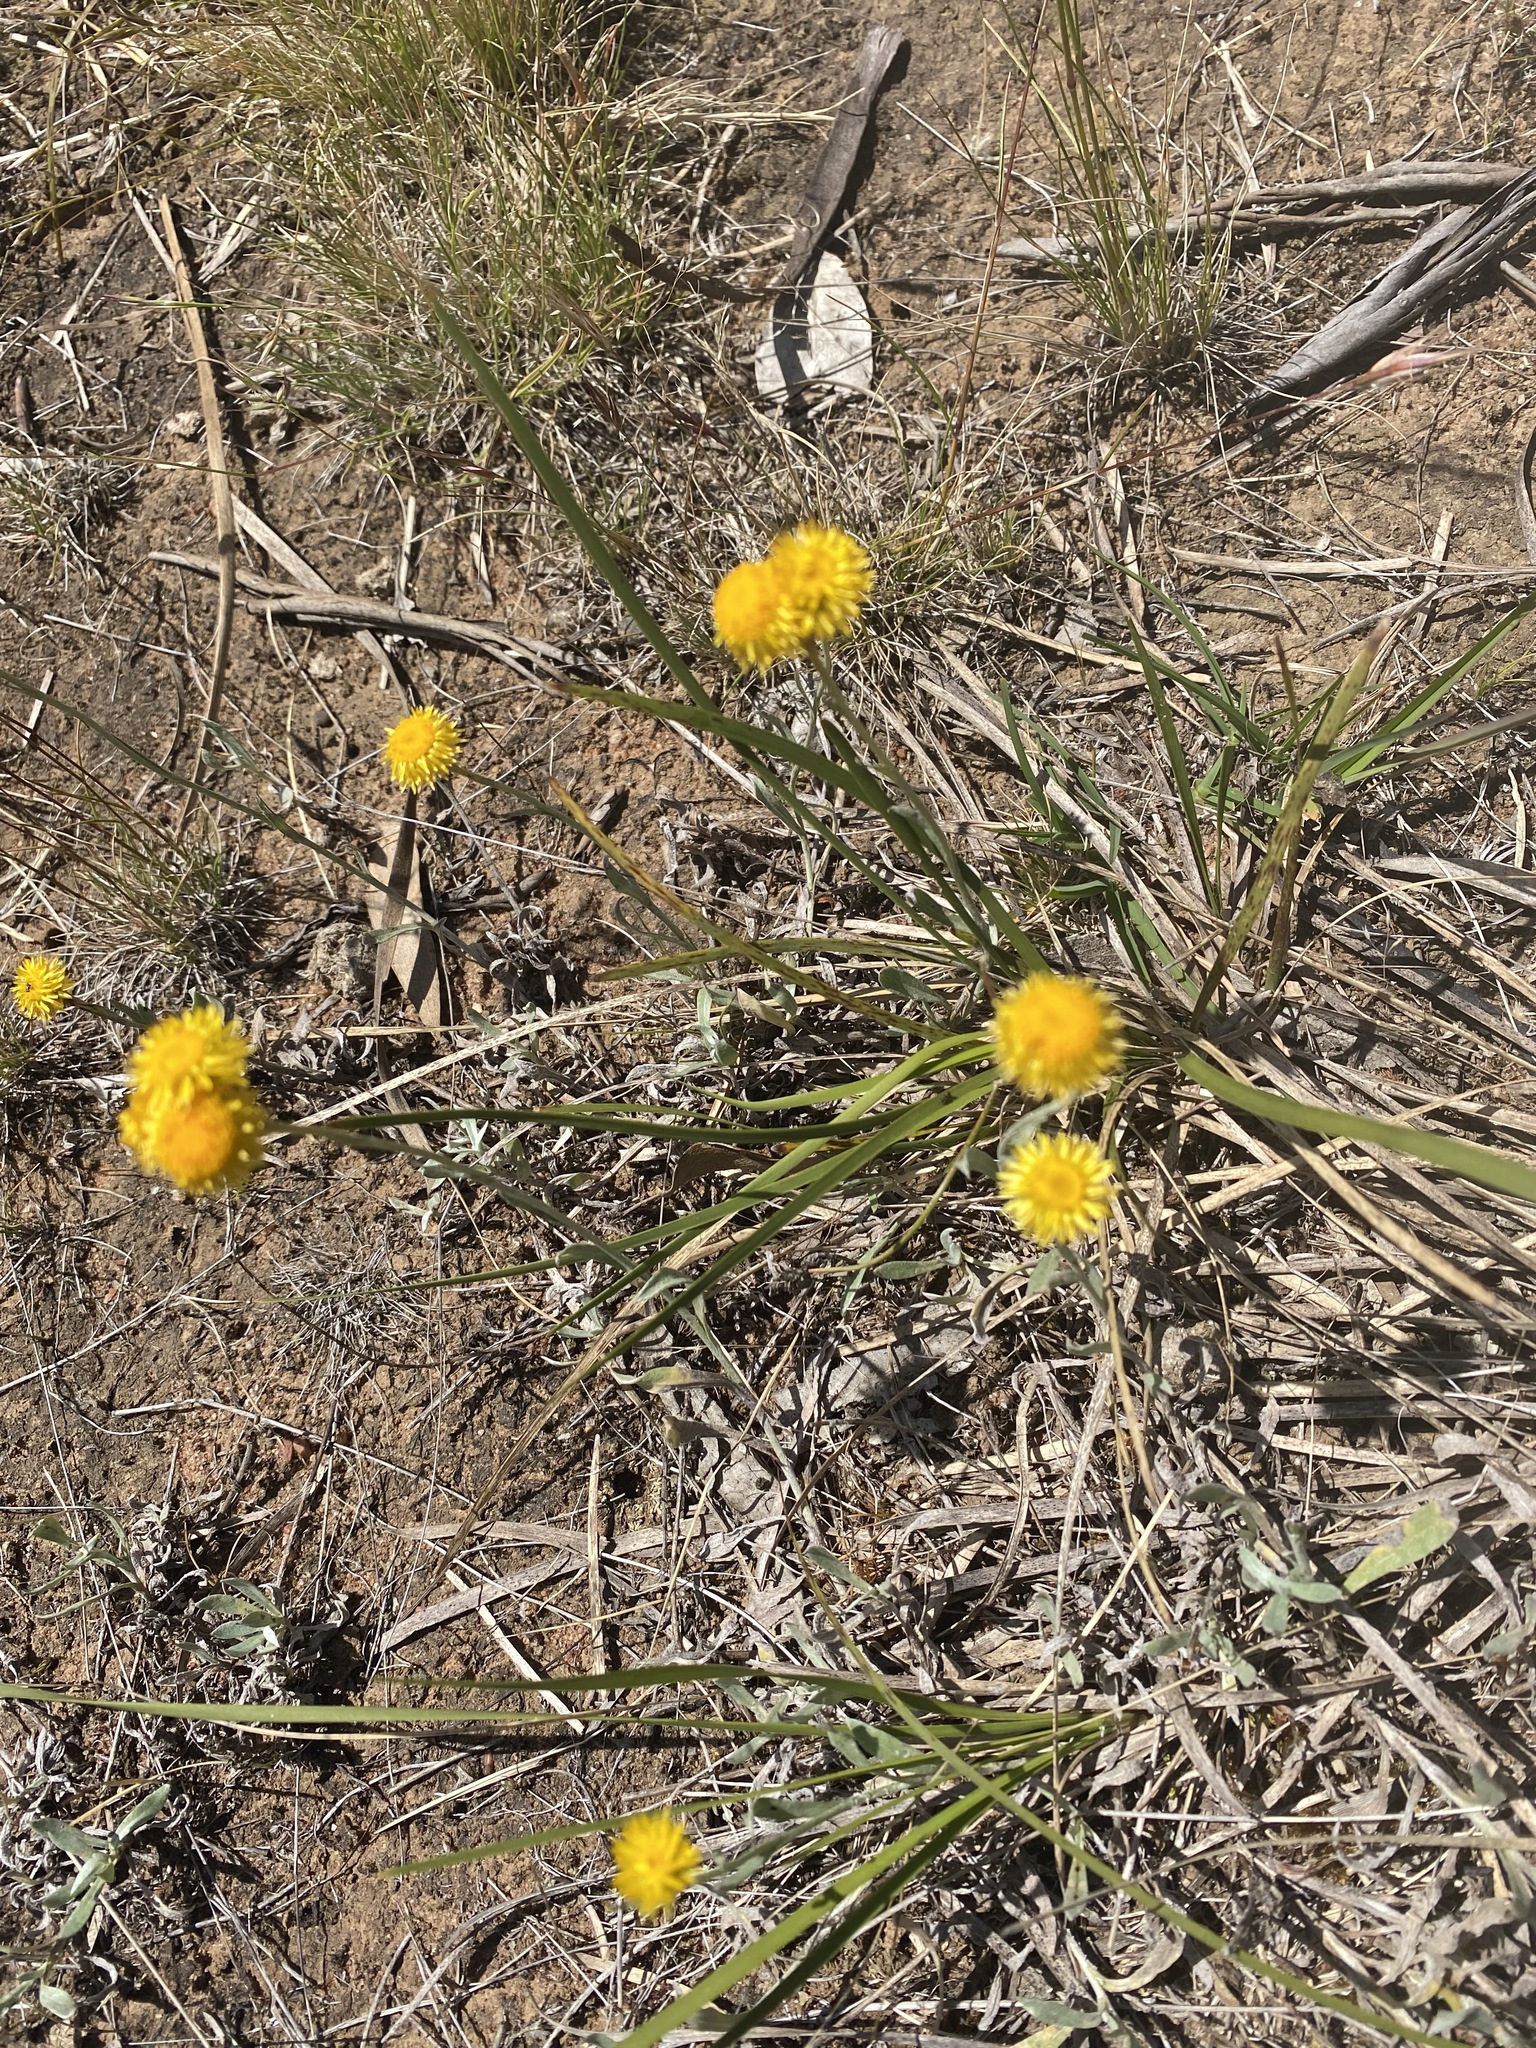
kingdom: Plantae
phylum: Tracheophyta
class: Magnoliopsida
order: Asterales
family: Asteraceae
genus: Chrysocephalum
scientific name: Chrysocephalum apiculatum
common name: Common everlasting
